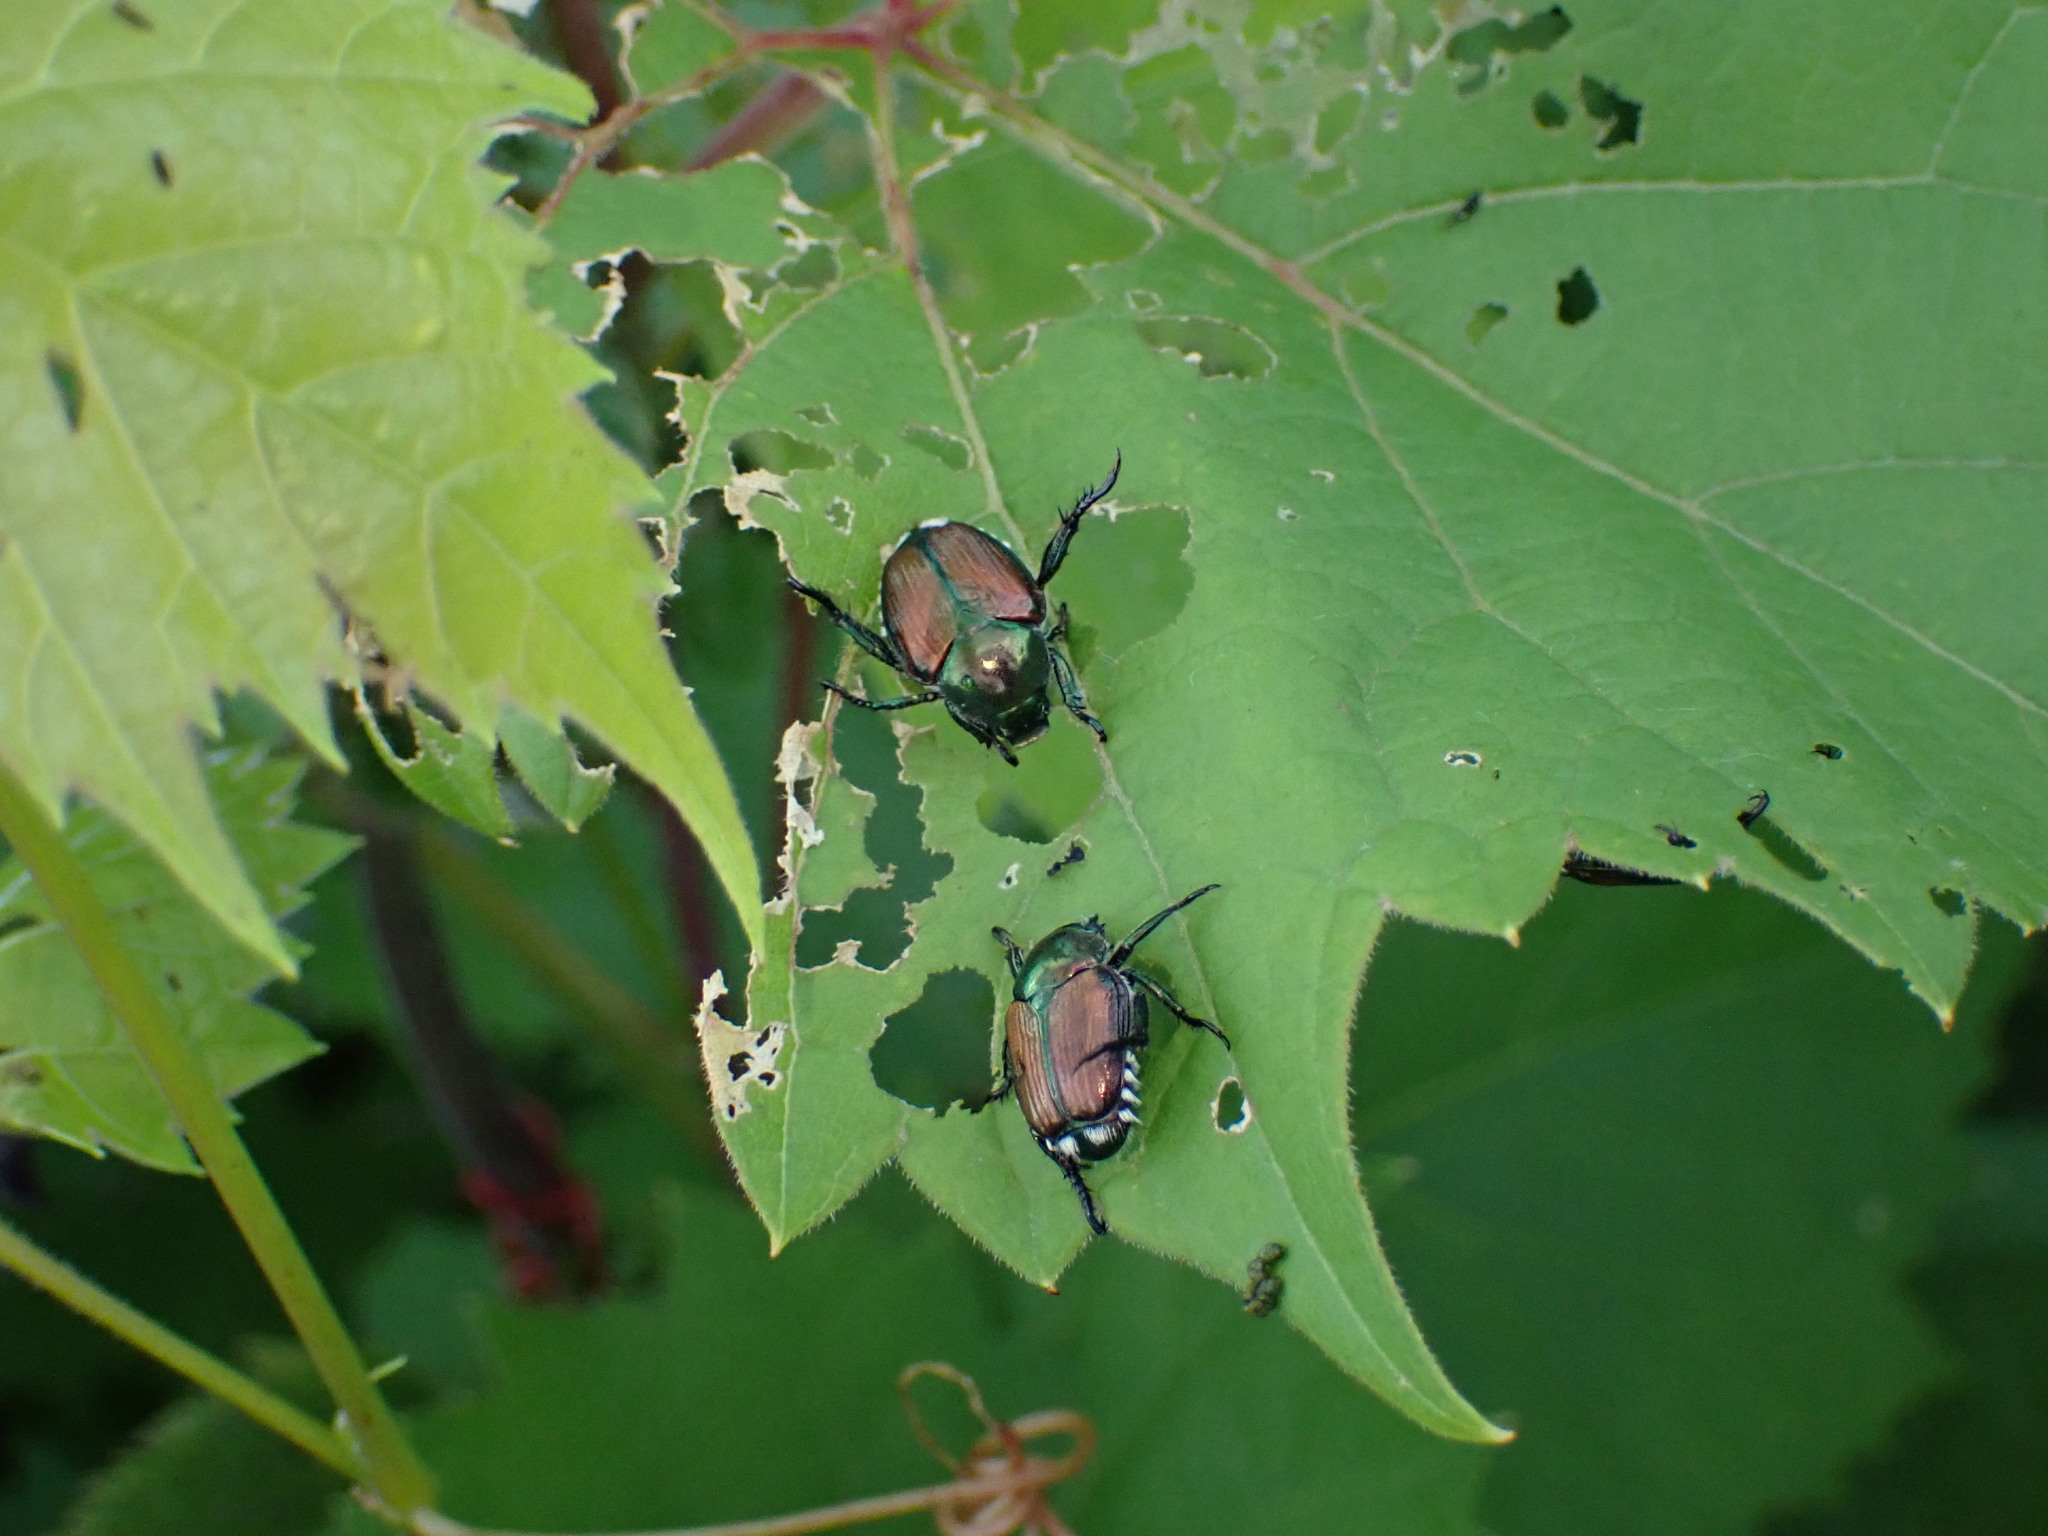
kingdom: Animalia
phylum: Arthropoda
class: Insecta
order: Coleoptera
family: Scarabaeidae
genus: Popillia
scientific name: Popillia japonica
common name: Japanese beetle
